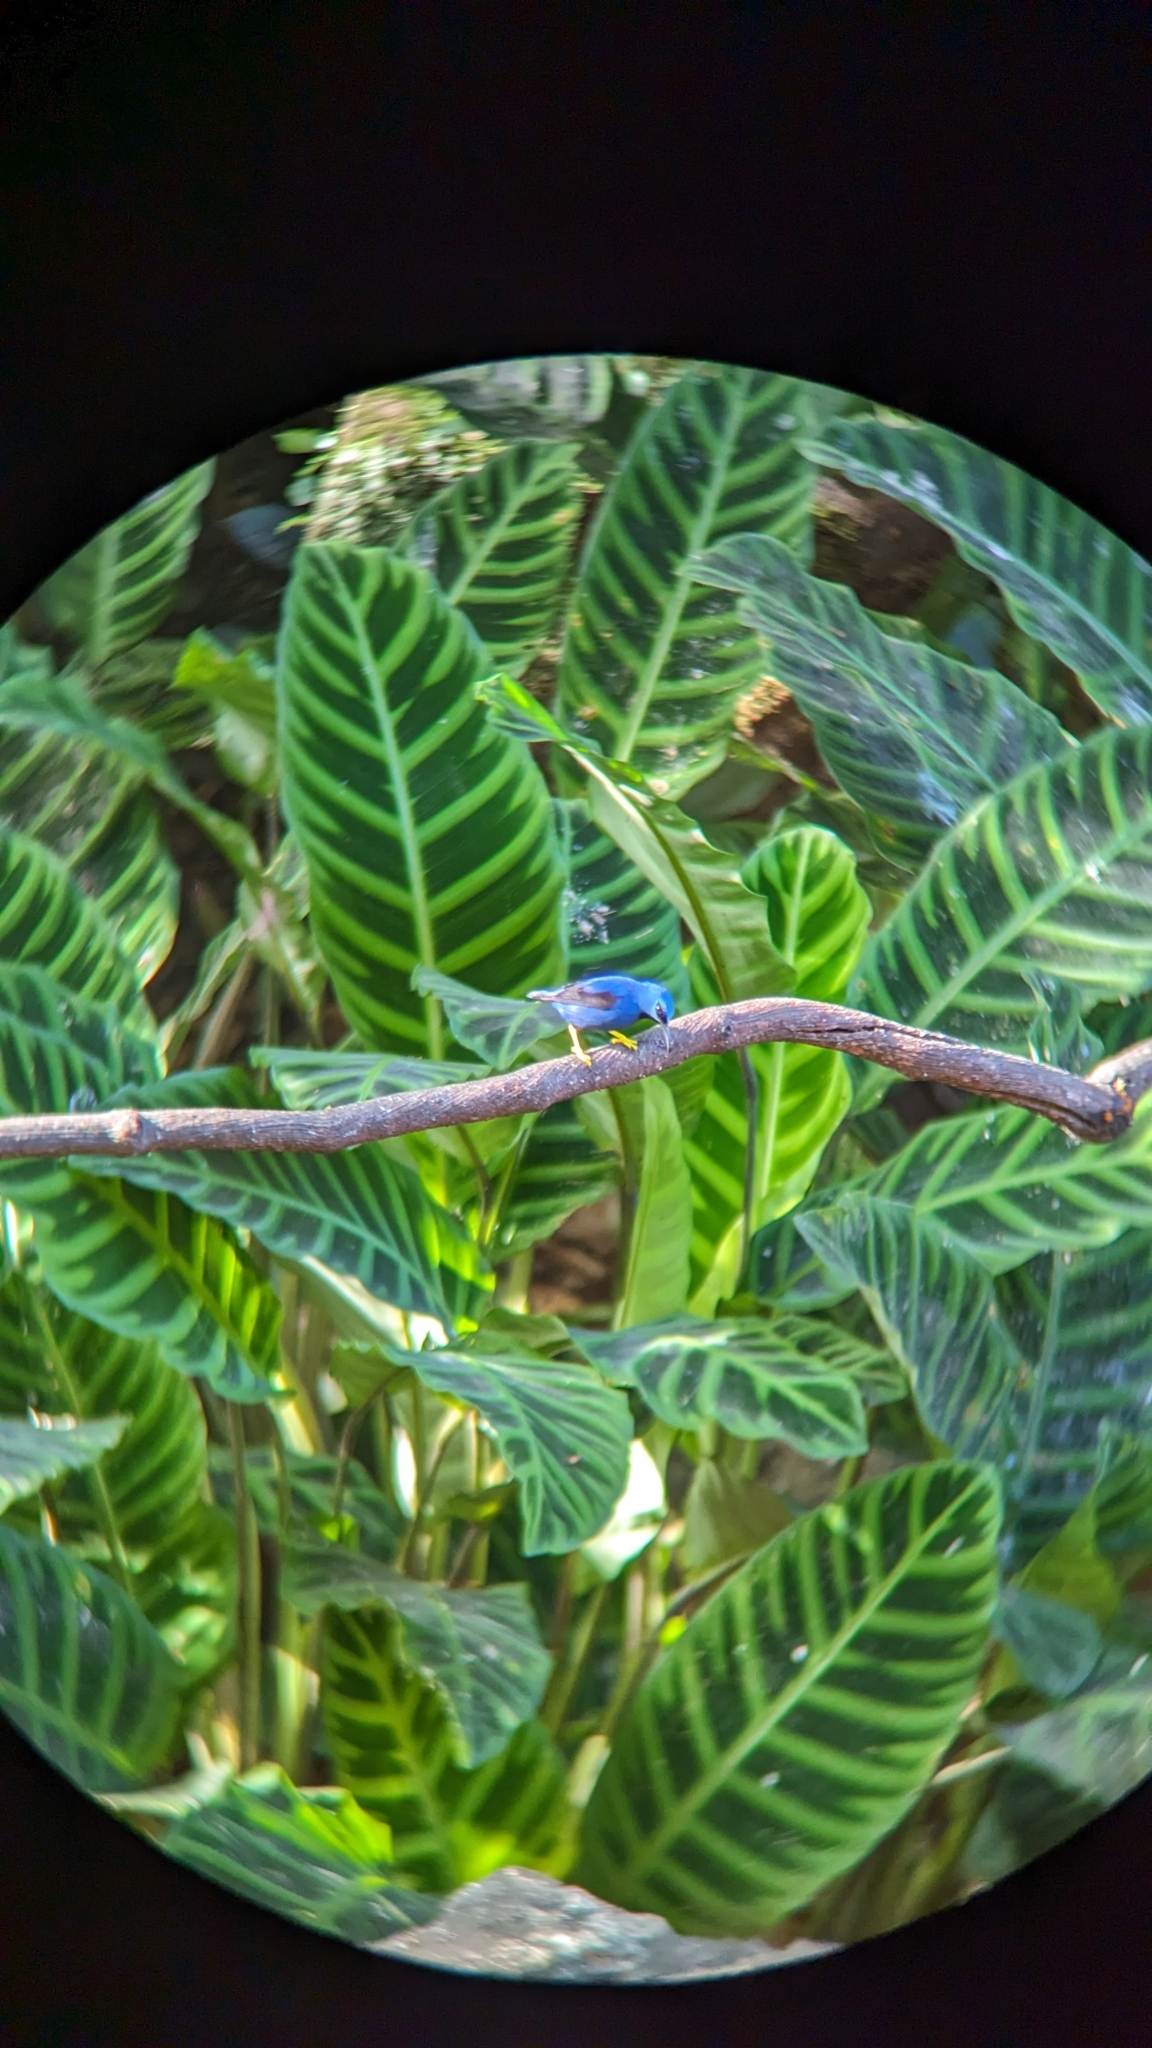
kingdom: Animalia
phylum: Chordata
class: Aves
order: Passeriformes
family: Thraupidae
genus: Cyanerpes
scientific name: Cyanerpes lucidus
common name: Shining honeycreeper
